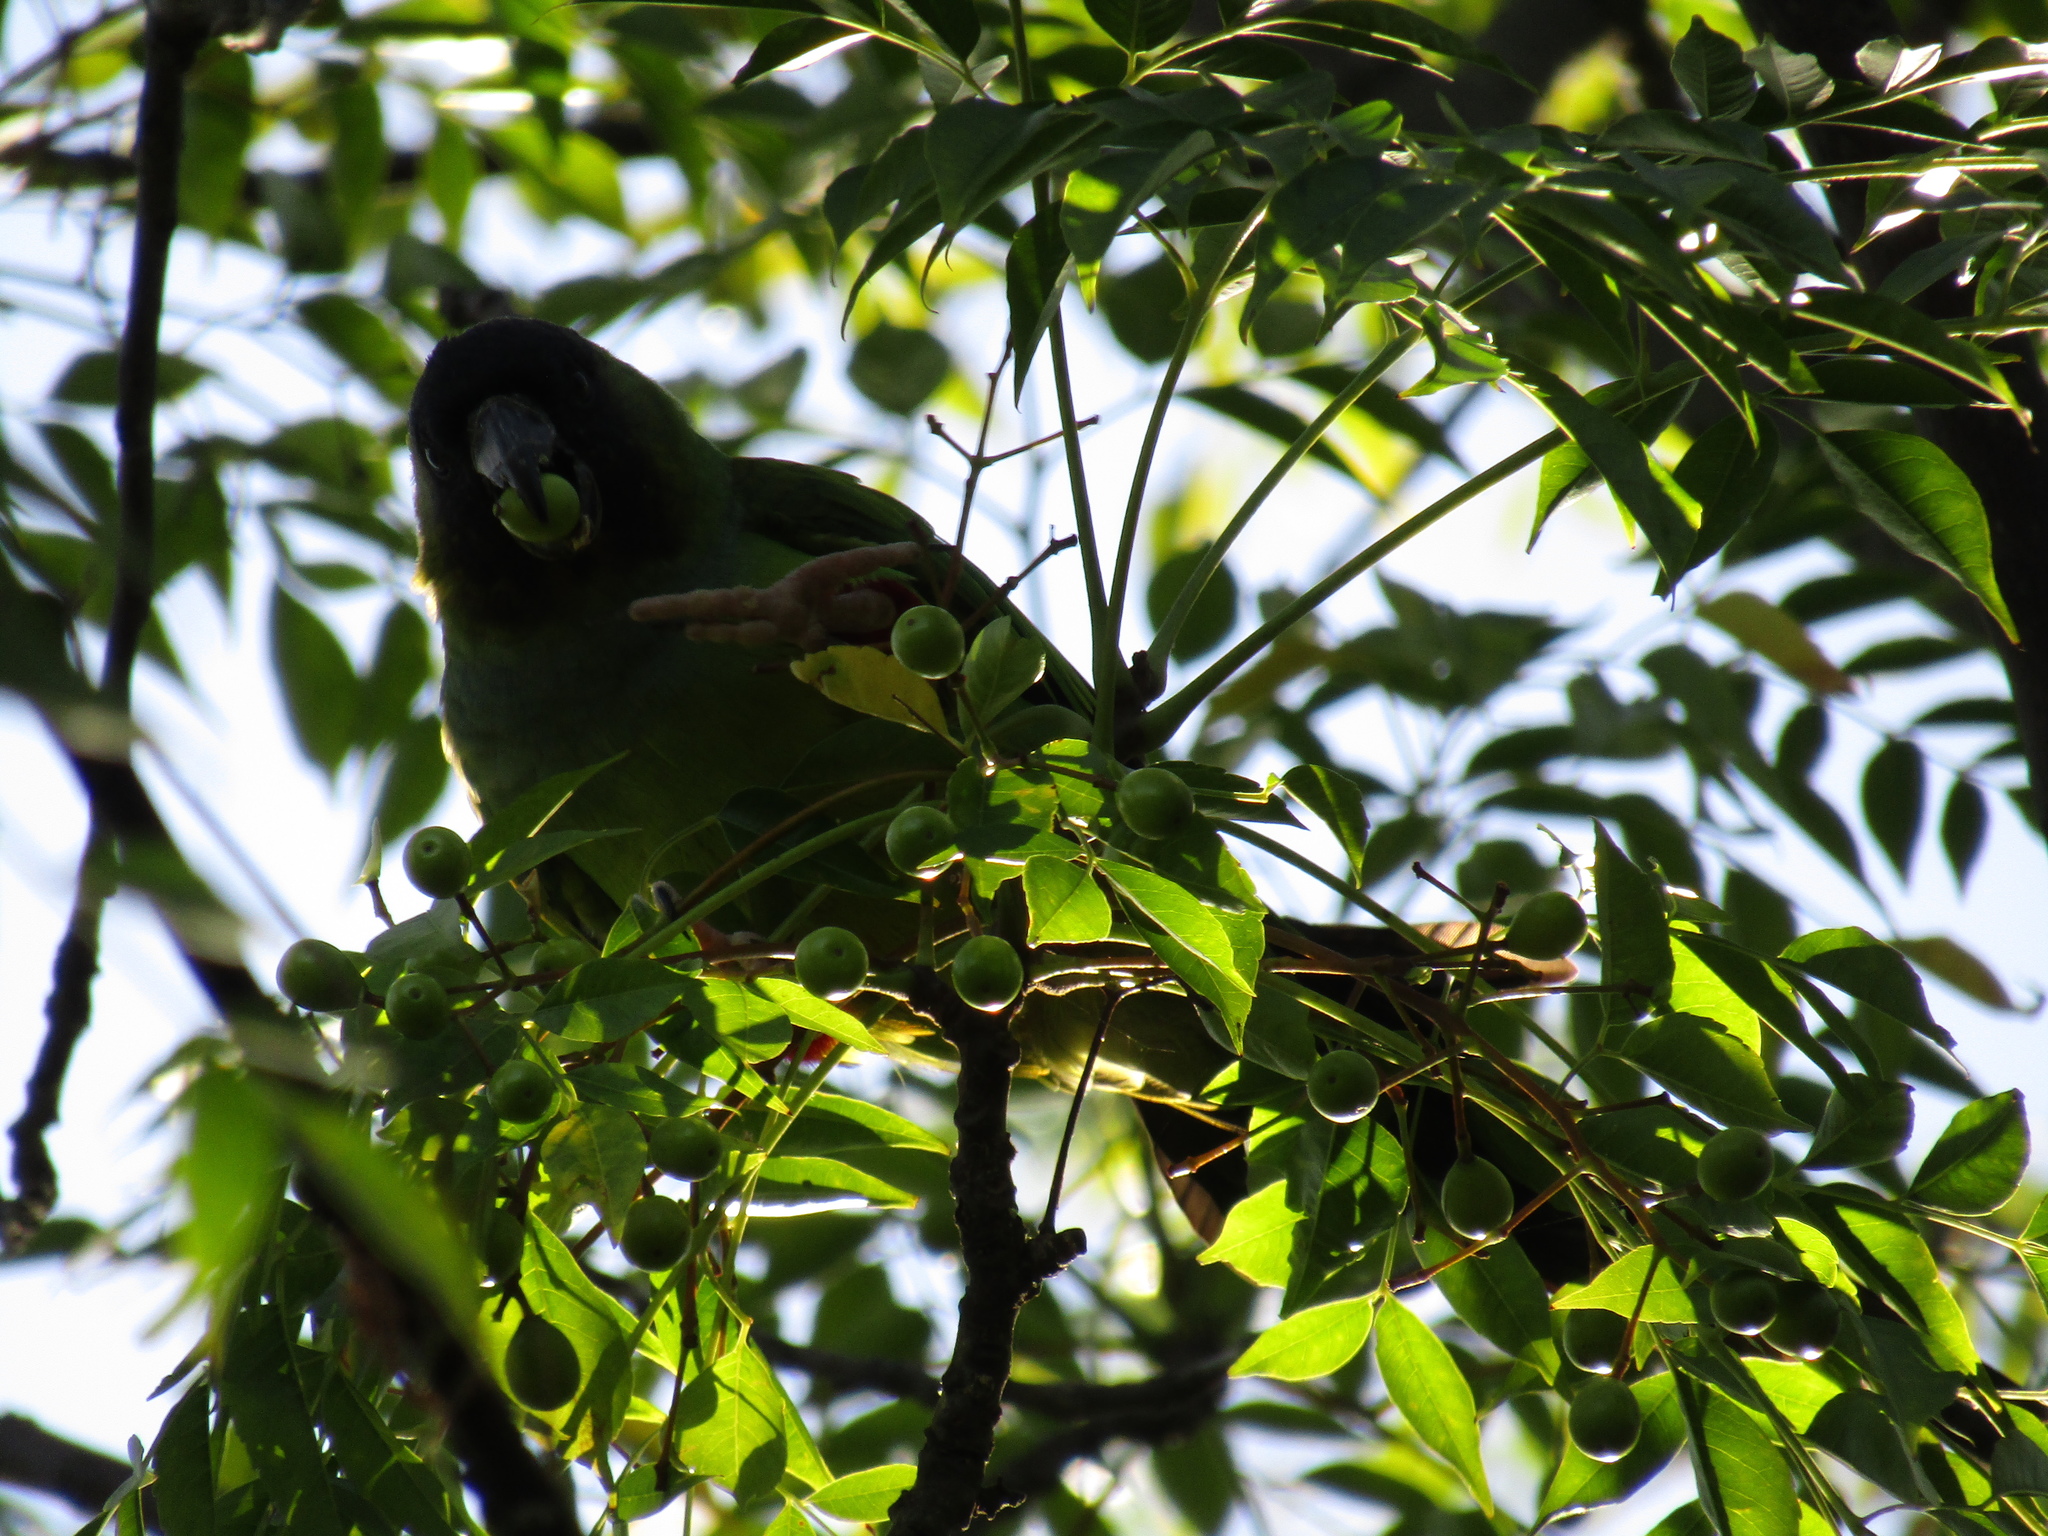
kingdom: Animalia
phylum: Chordata
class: Aves
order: Psittaciformes
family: Psittacidae
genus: Nandayus
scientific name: Nandayus nenday
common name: Nanday parakeet
